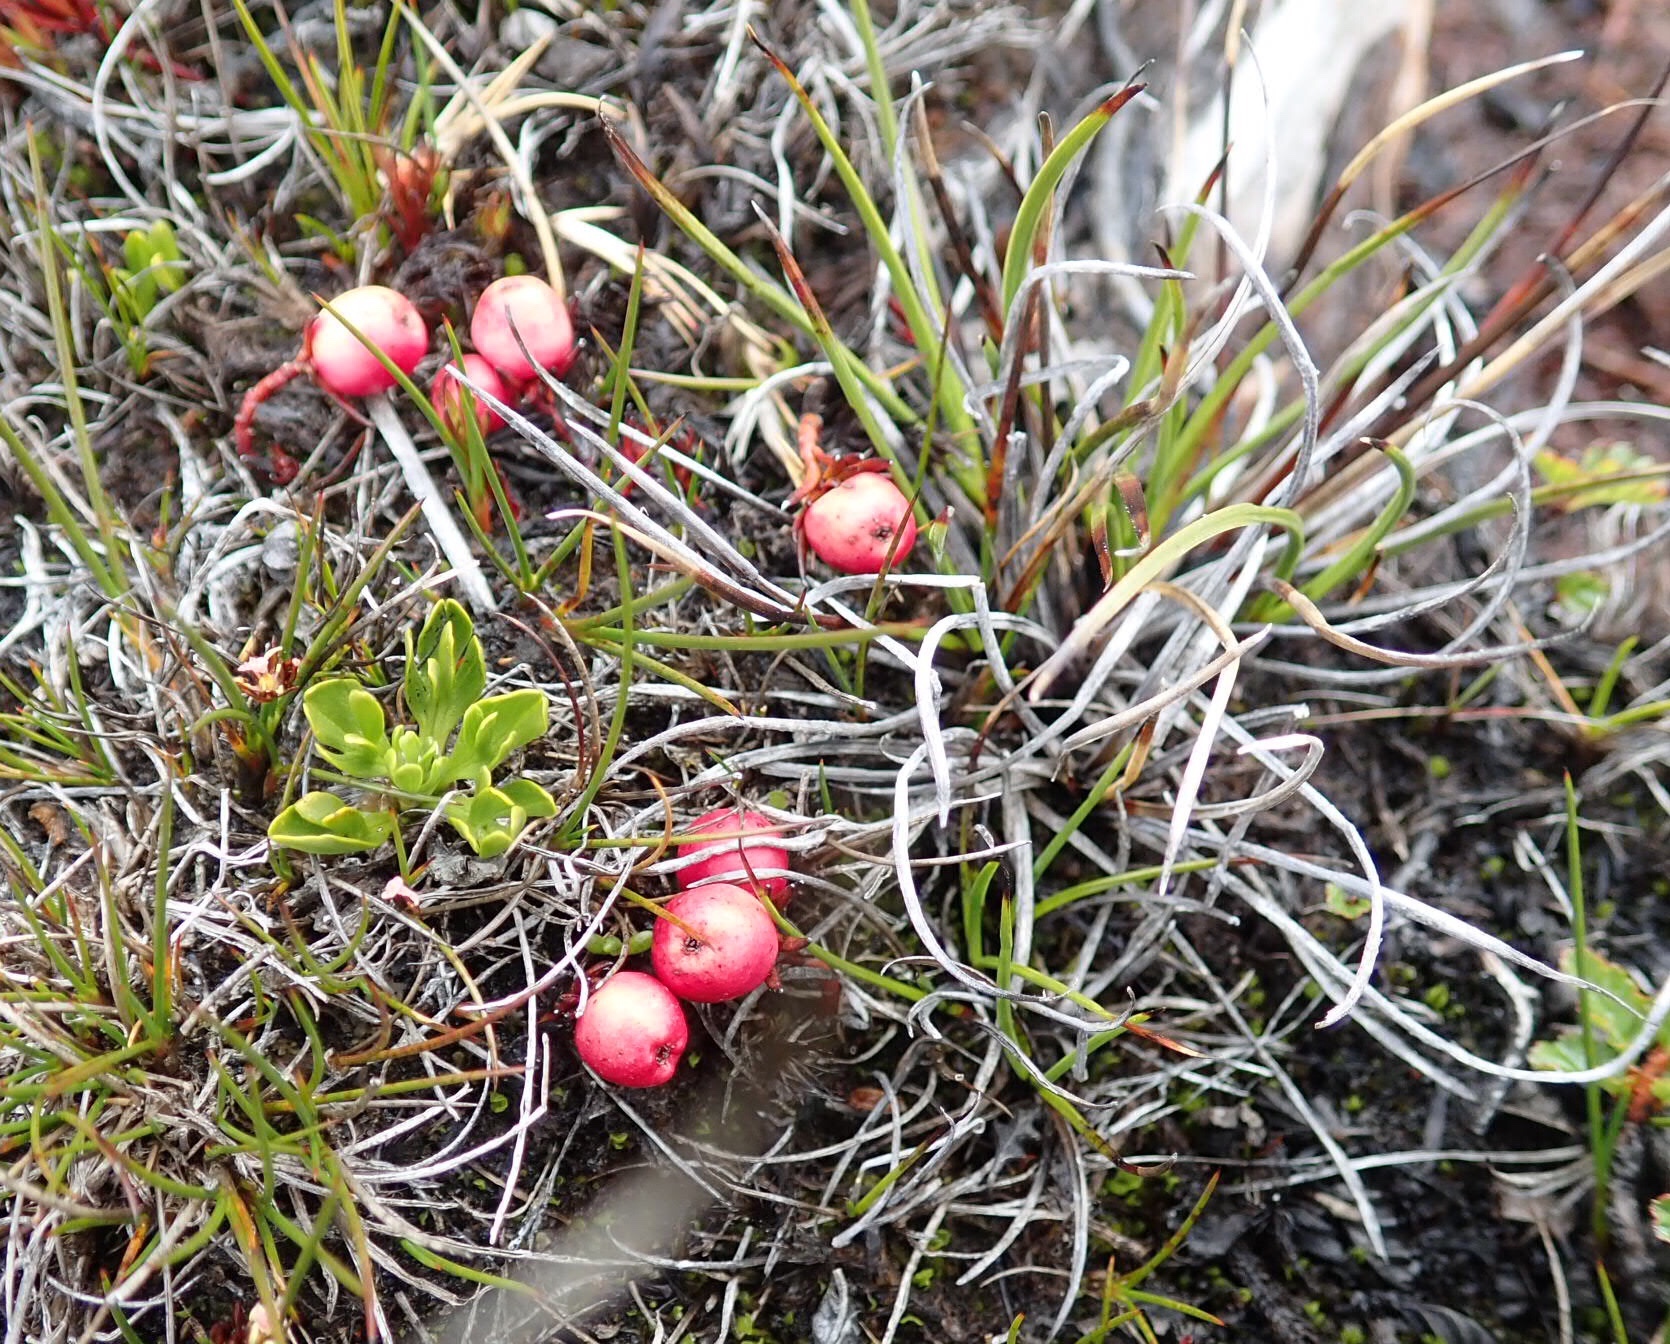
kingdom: Plantae
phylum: Tracheophyta
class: Magnoliopsida
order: Santalales
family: Nanodeaceae
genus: Nanodea
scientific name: Nanodea muscosa
